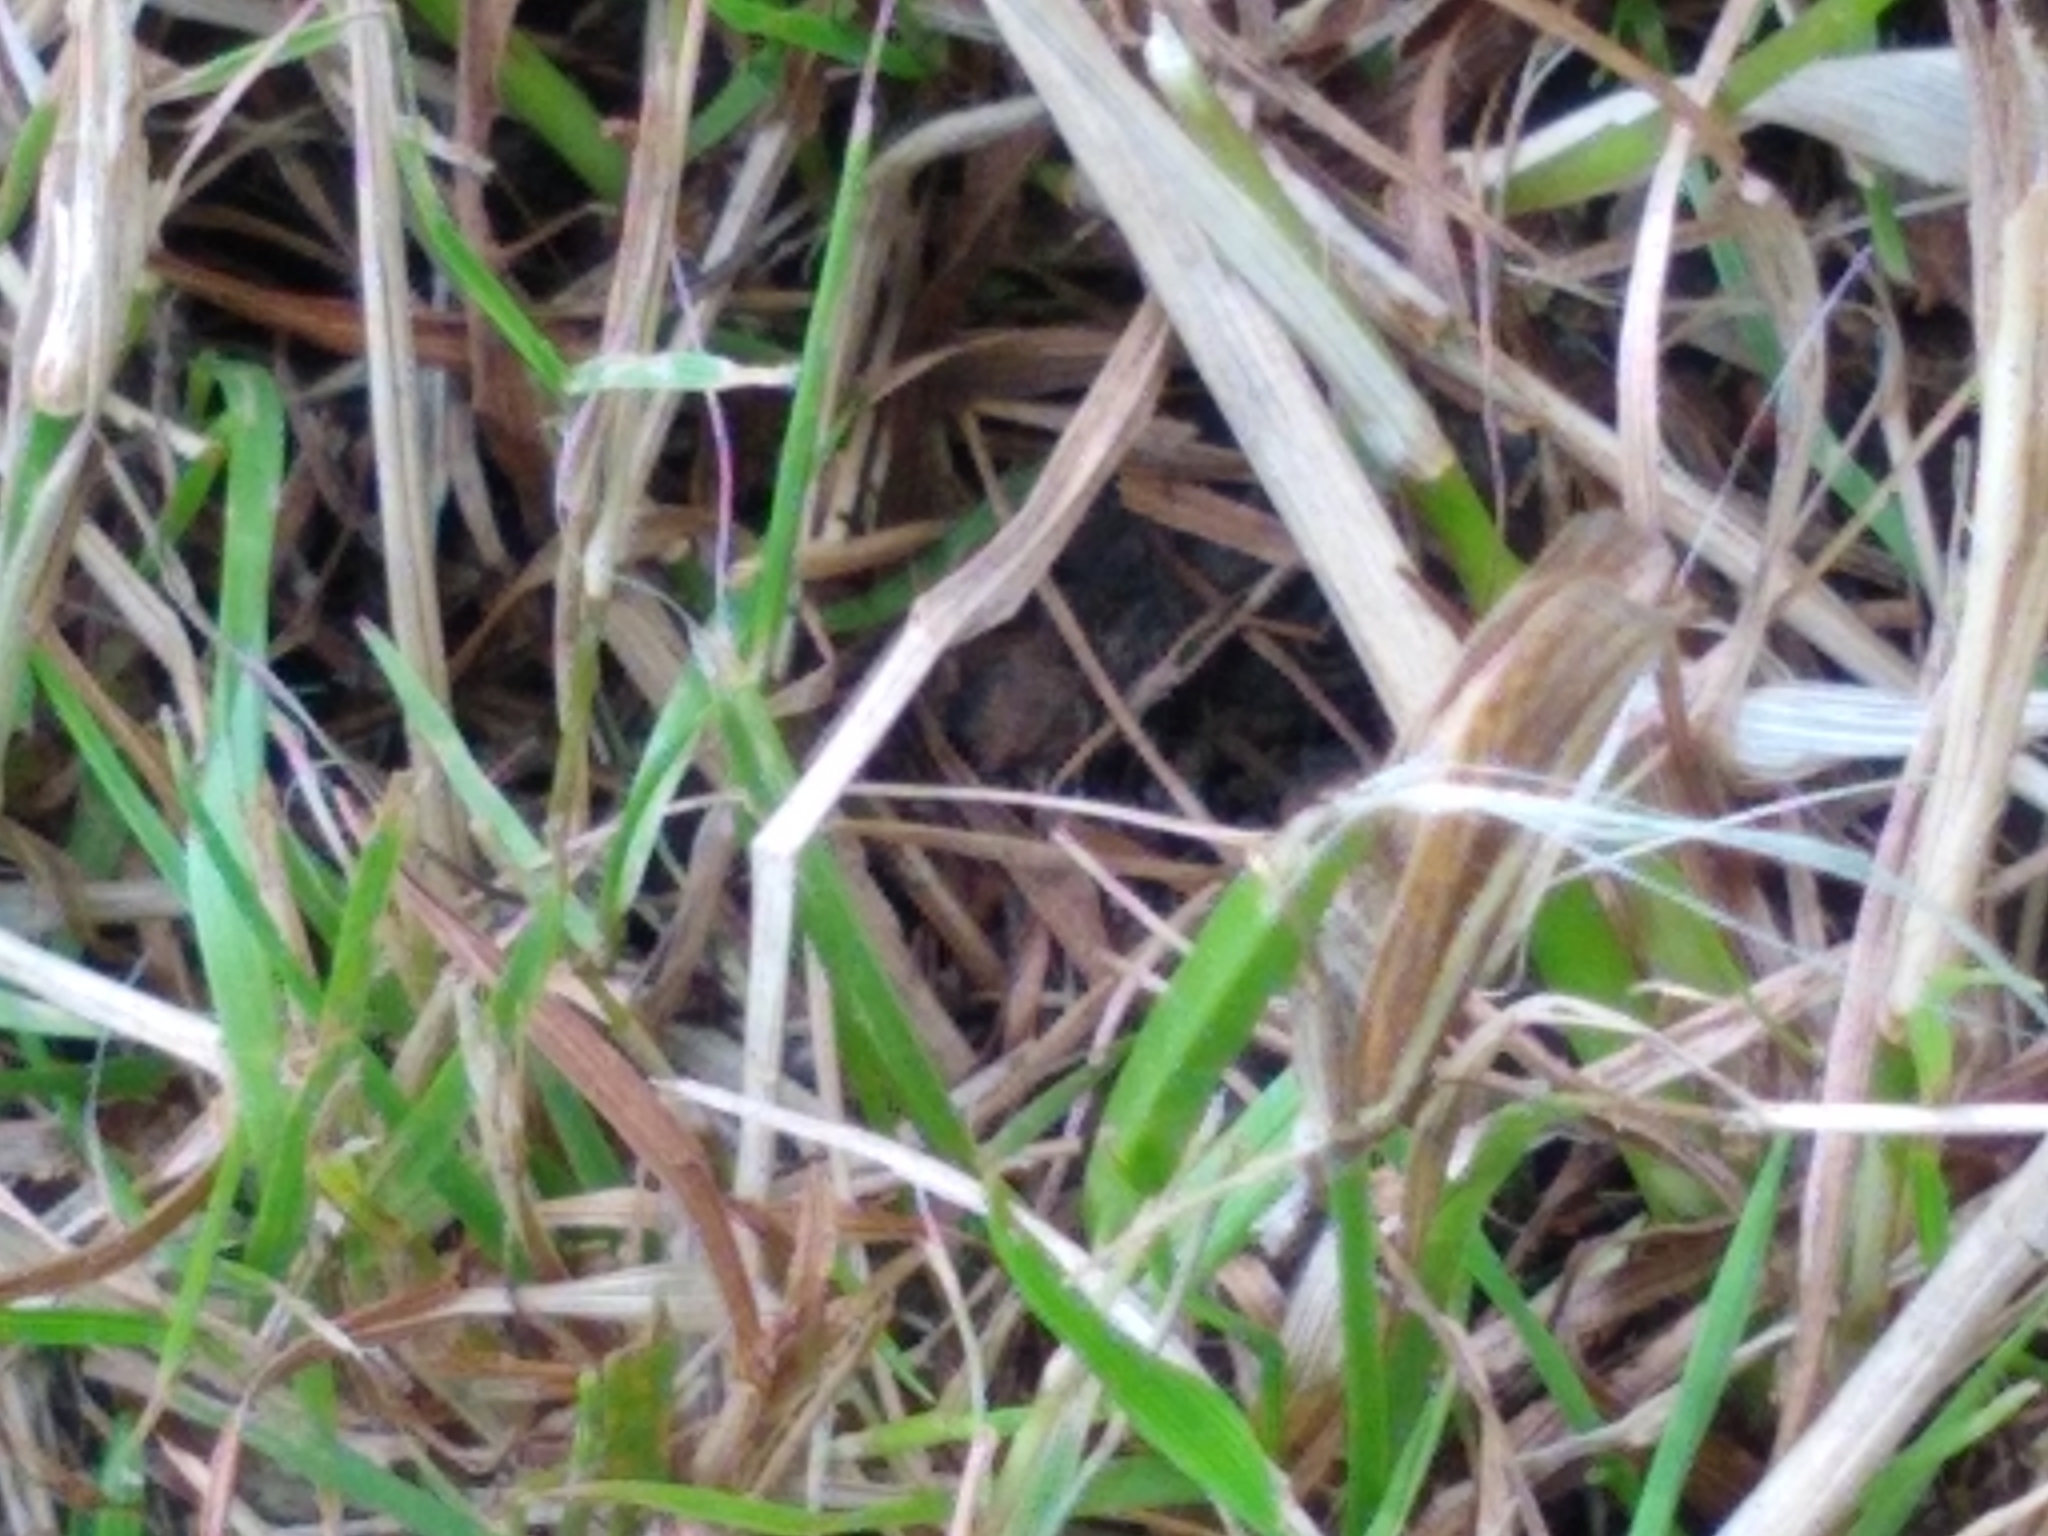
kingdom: Animalia
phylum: Arthropoda
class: Insecta
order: Lepidoptera
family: Crambidae
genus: Agriphila
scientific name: Agriphila tristellus
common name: Common grass-veneer
